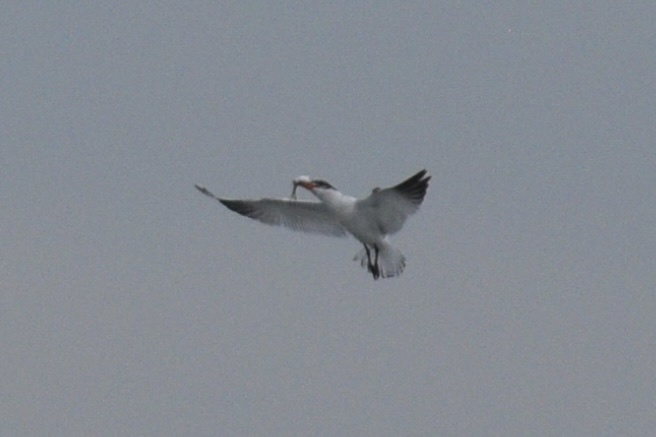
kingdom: Animalia
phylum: Chordata
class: Aves
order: Charadriiformes
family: Laridae
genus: Hydroprogne
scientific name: Hydroprogne caspia
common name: Caspian tern
